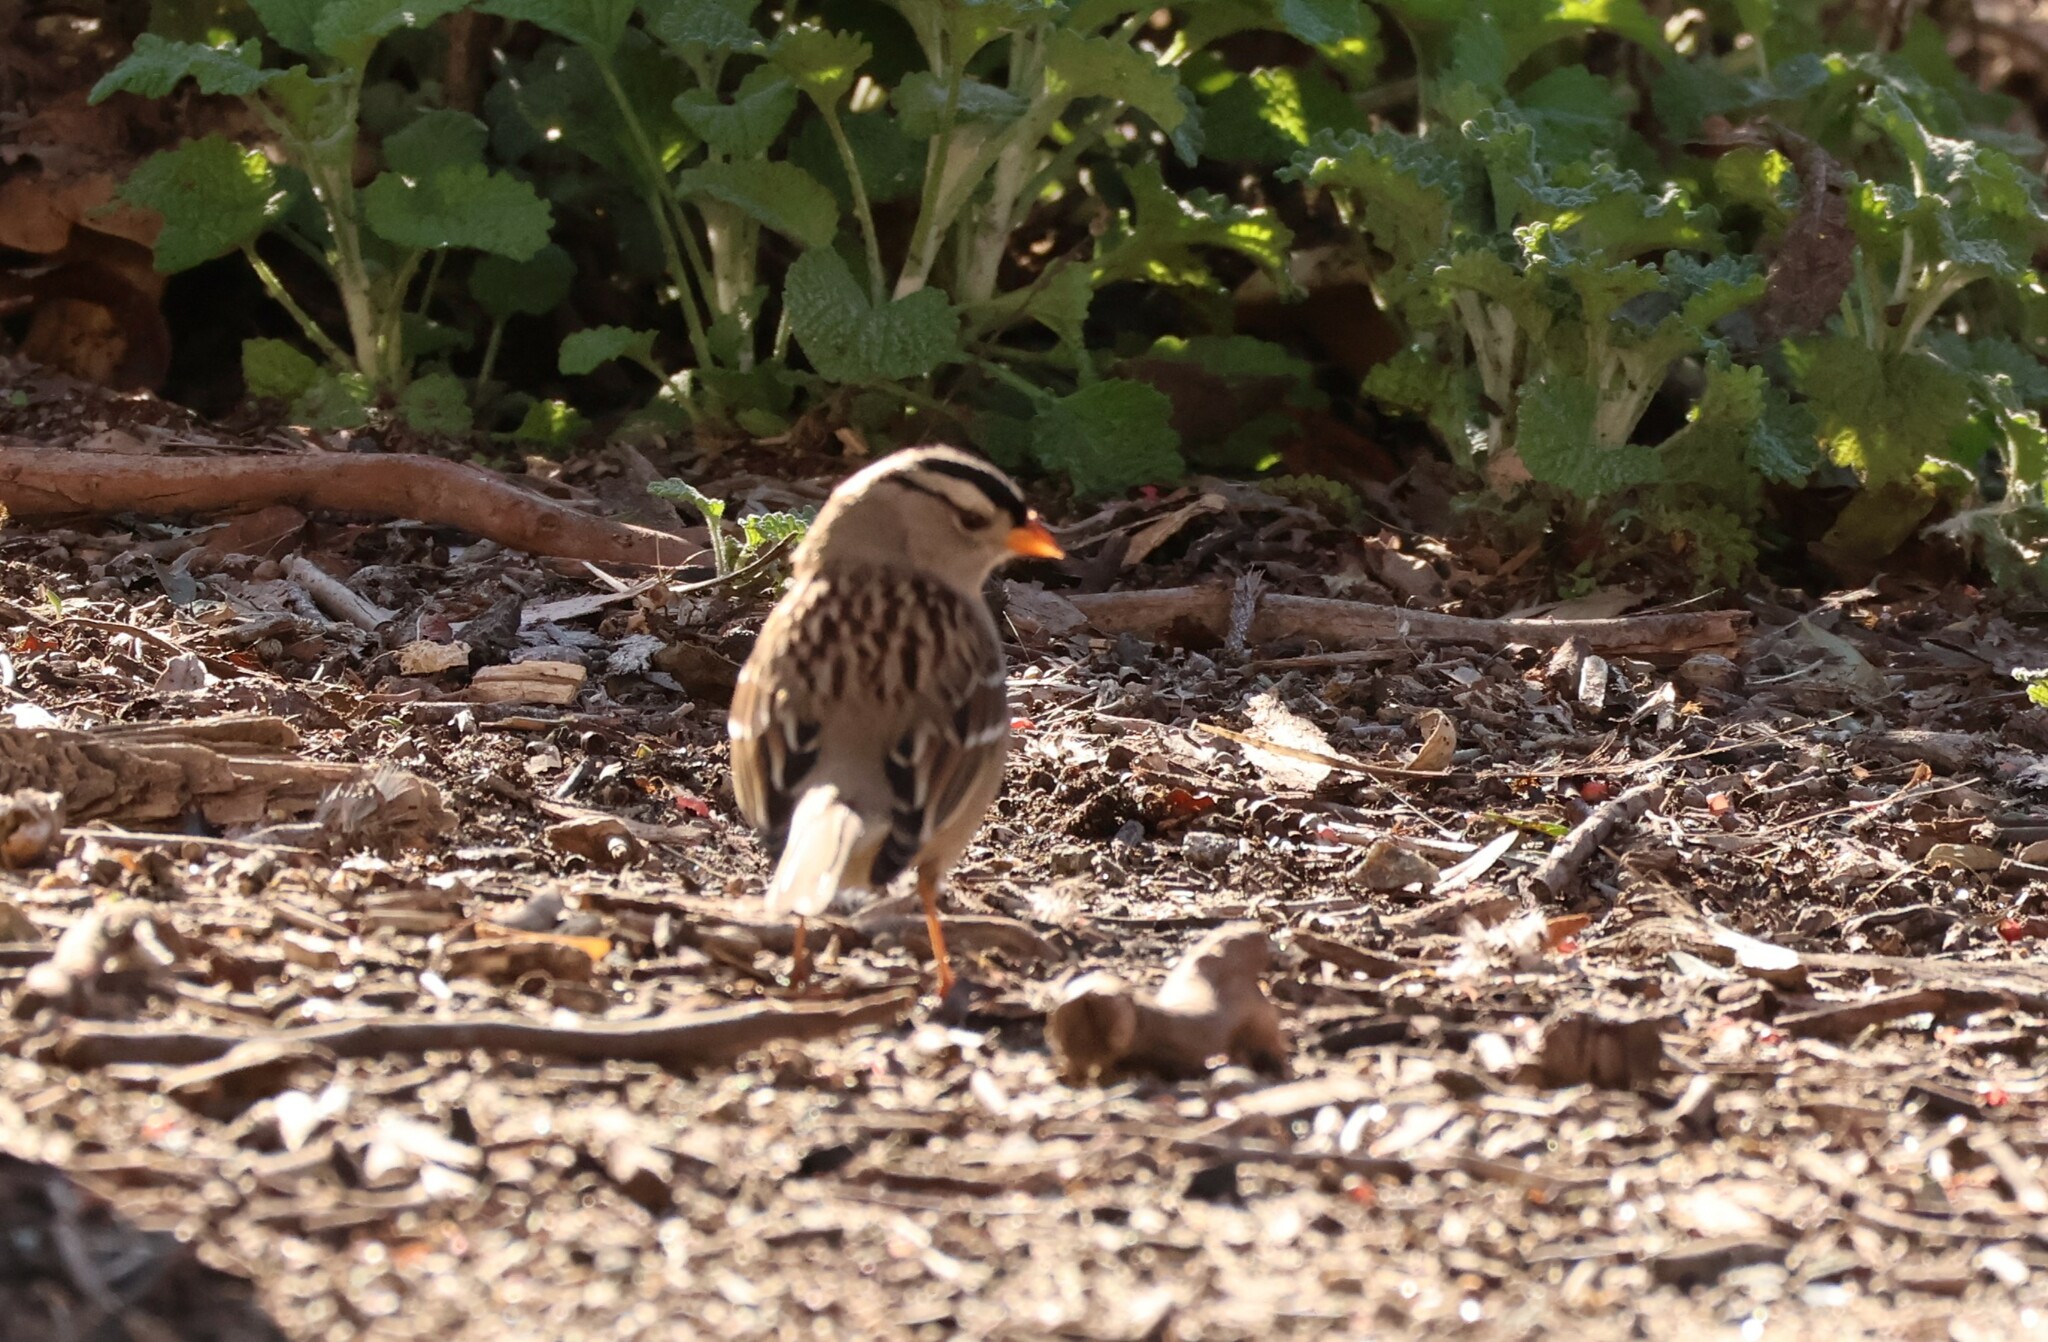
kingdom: Animalia
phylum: Chordata
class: Aves
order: Passeriformes
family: Passerellidae
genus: Zonotrichia
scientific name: Zonotrichia leucophrys
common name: White-crowned sparrow
